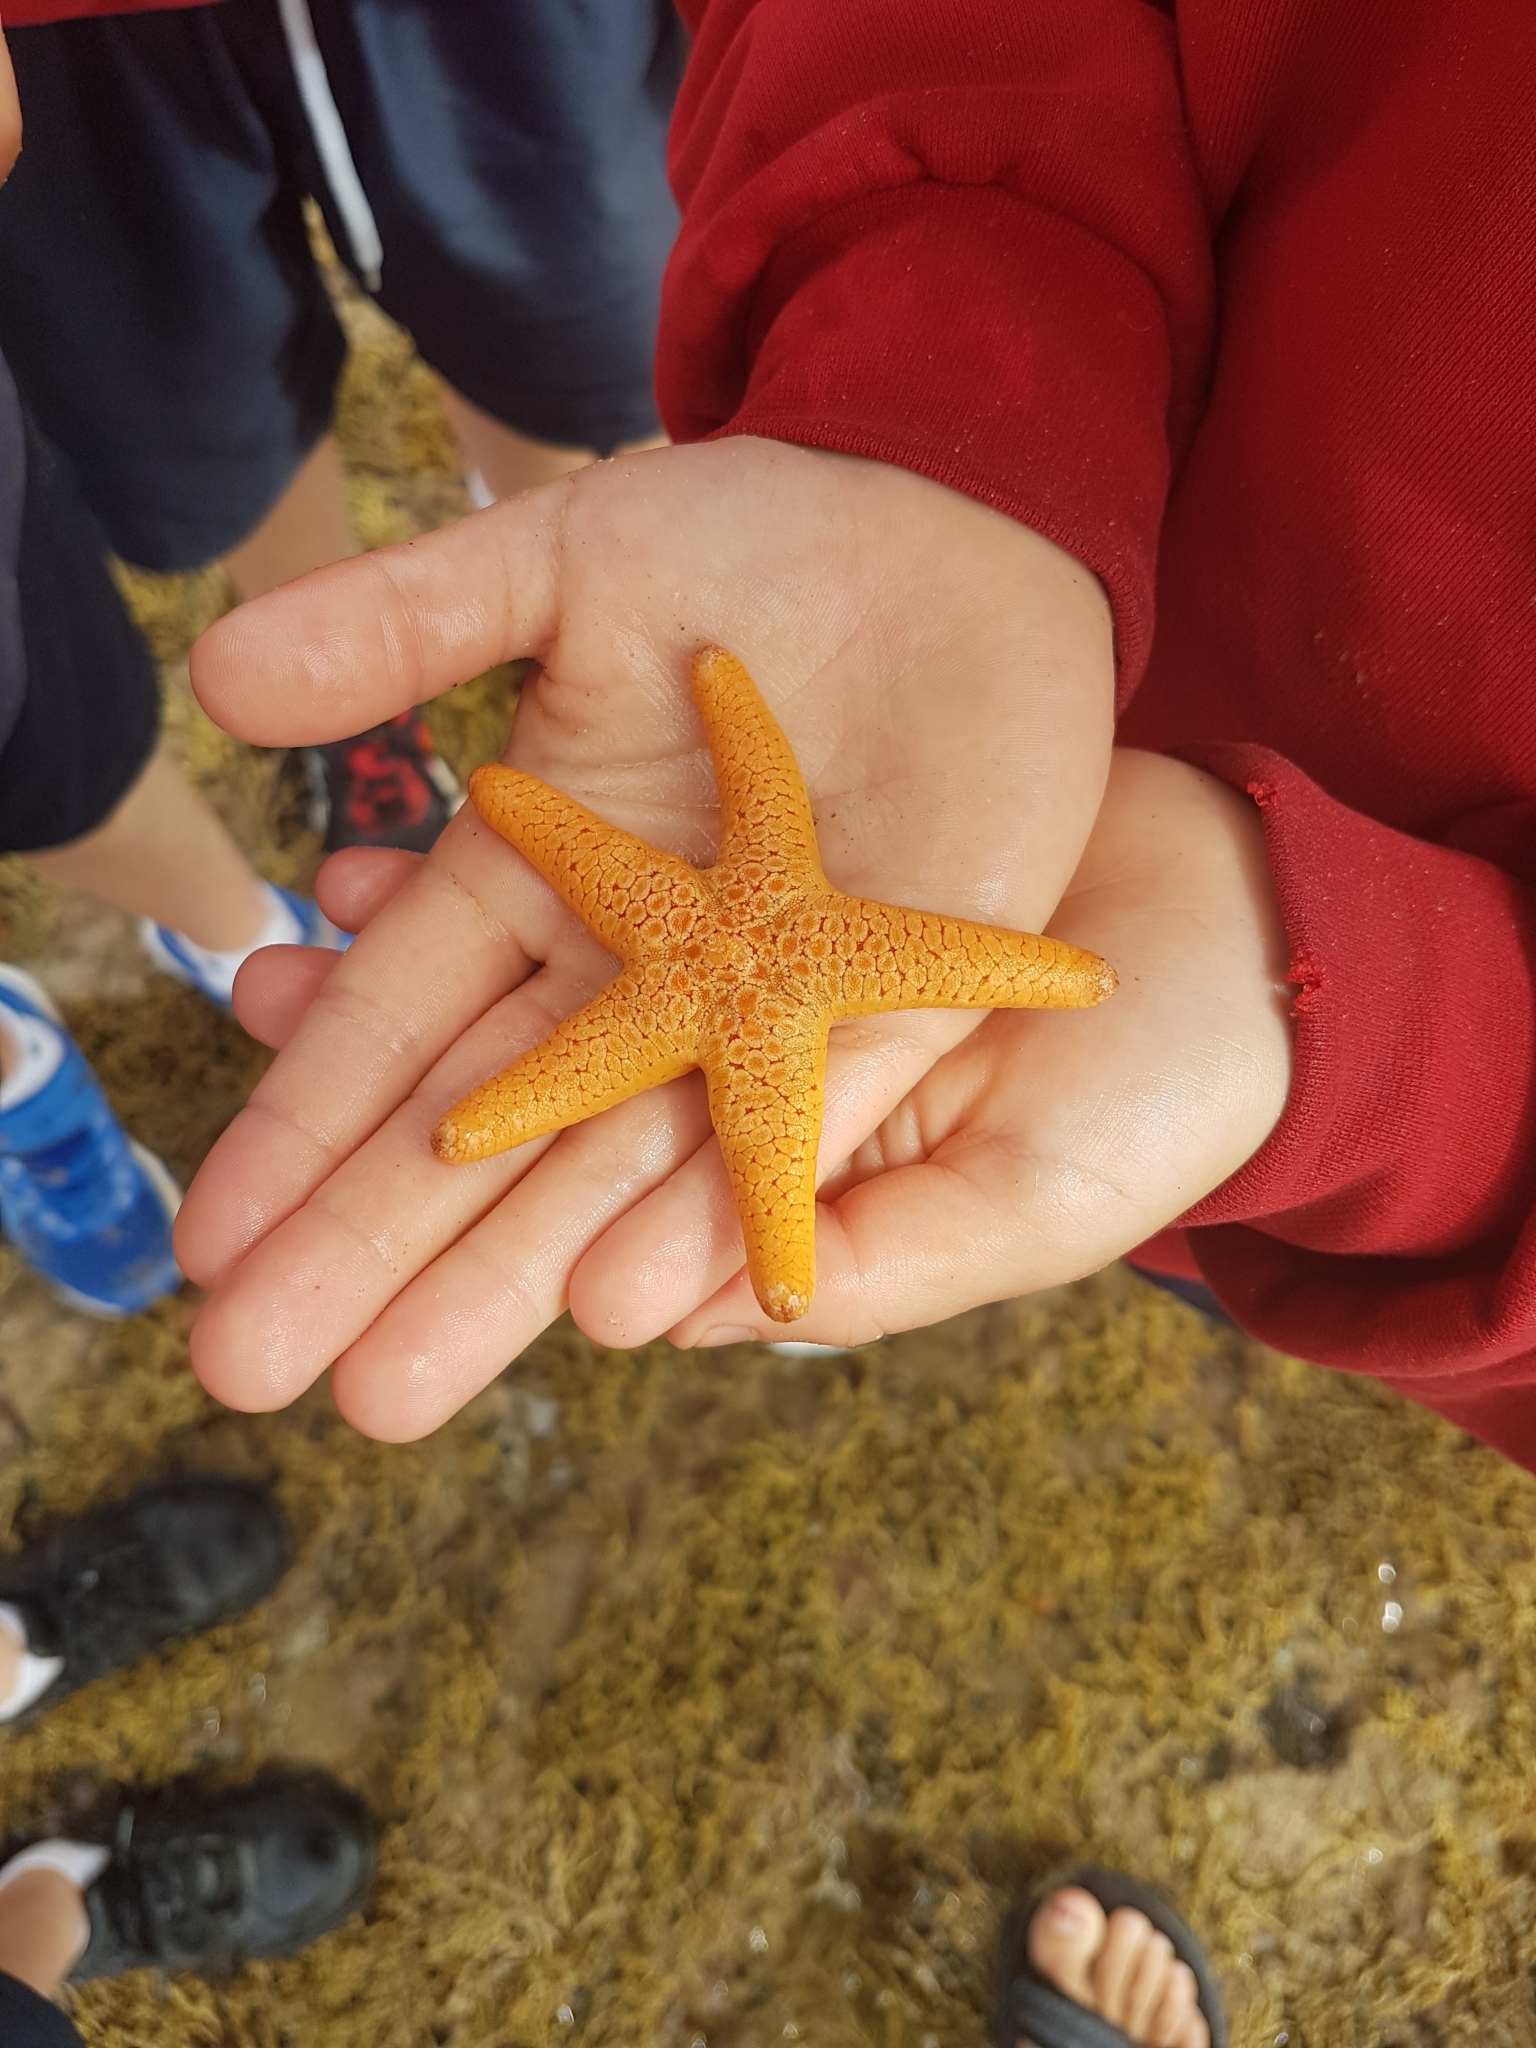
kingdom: Animalia
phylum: Echinodermata
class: Asteroidea
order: Valvatida
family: Goniasteridae
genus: Nectria
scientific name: Nectria macrobrachia
